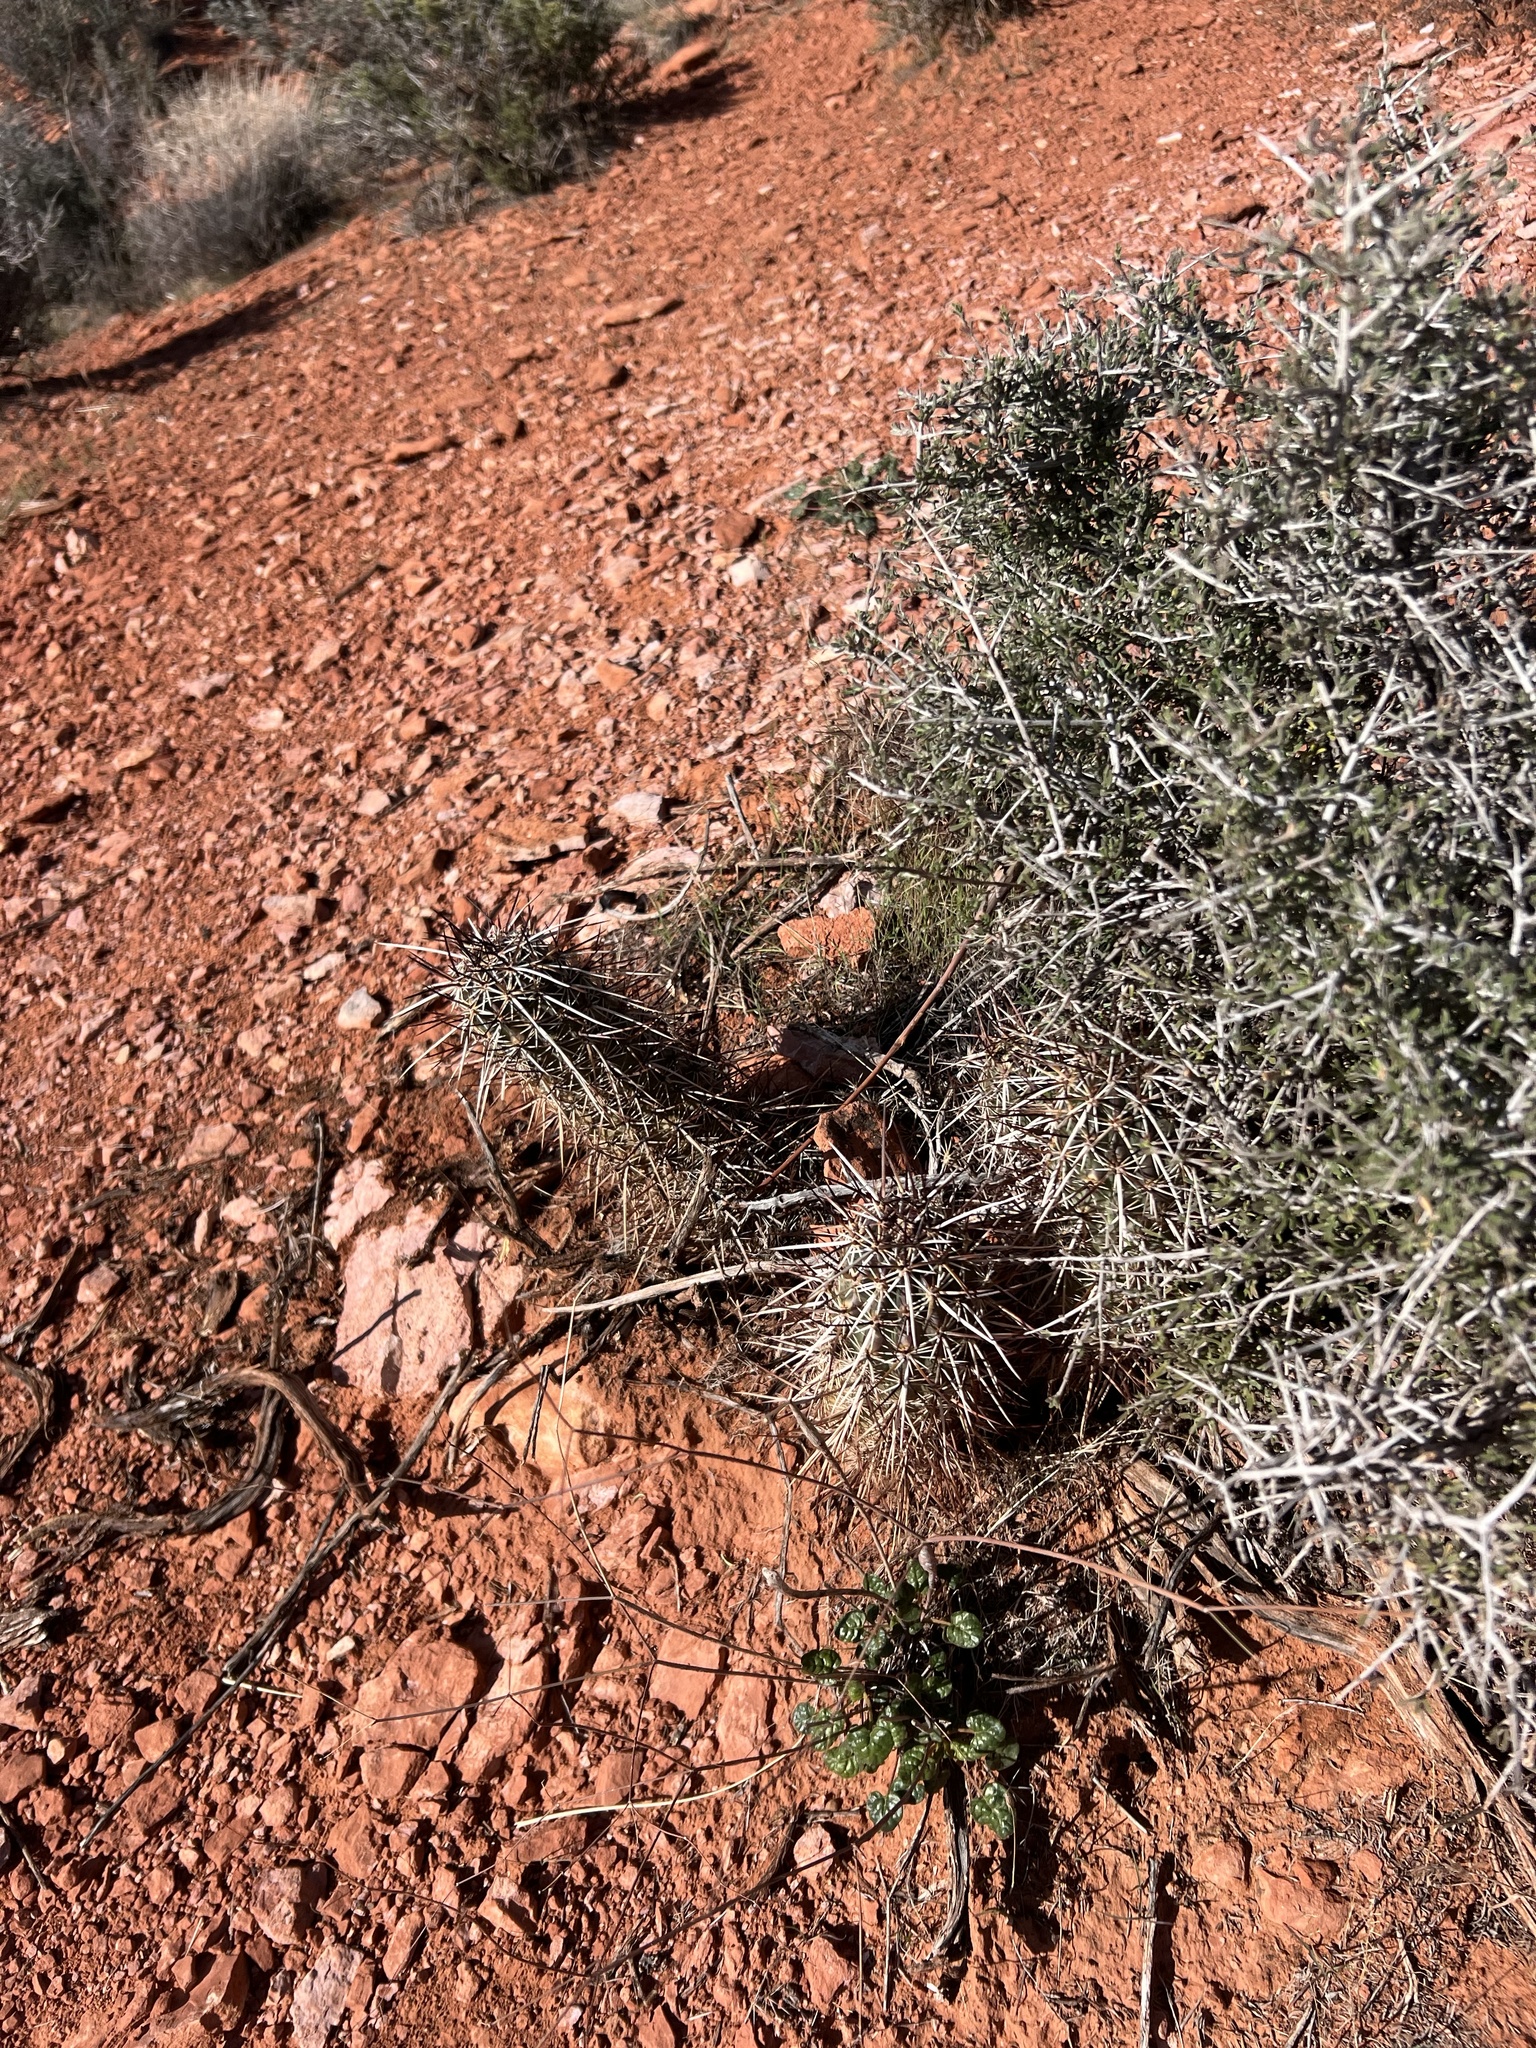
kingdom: Plantae
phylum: Tracheophyta
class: Magnoliopsida
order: Caryophyllales
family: Cactaceae
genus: Echinocereus
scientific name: Echinocereus engelmannii
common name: Engelmann's hedgehog cactus
